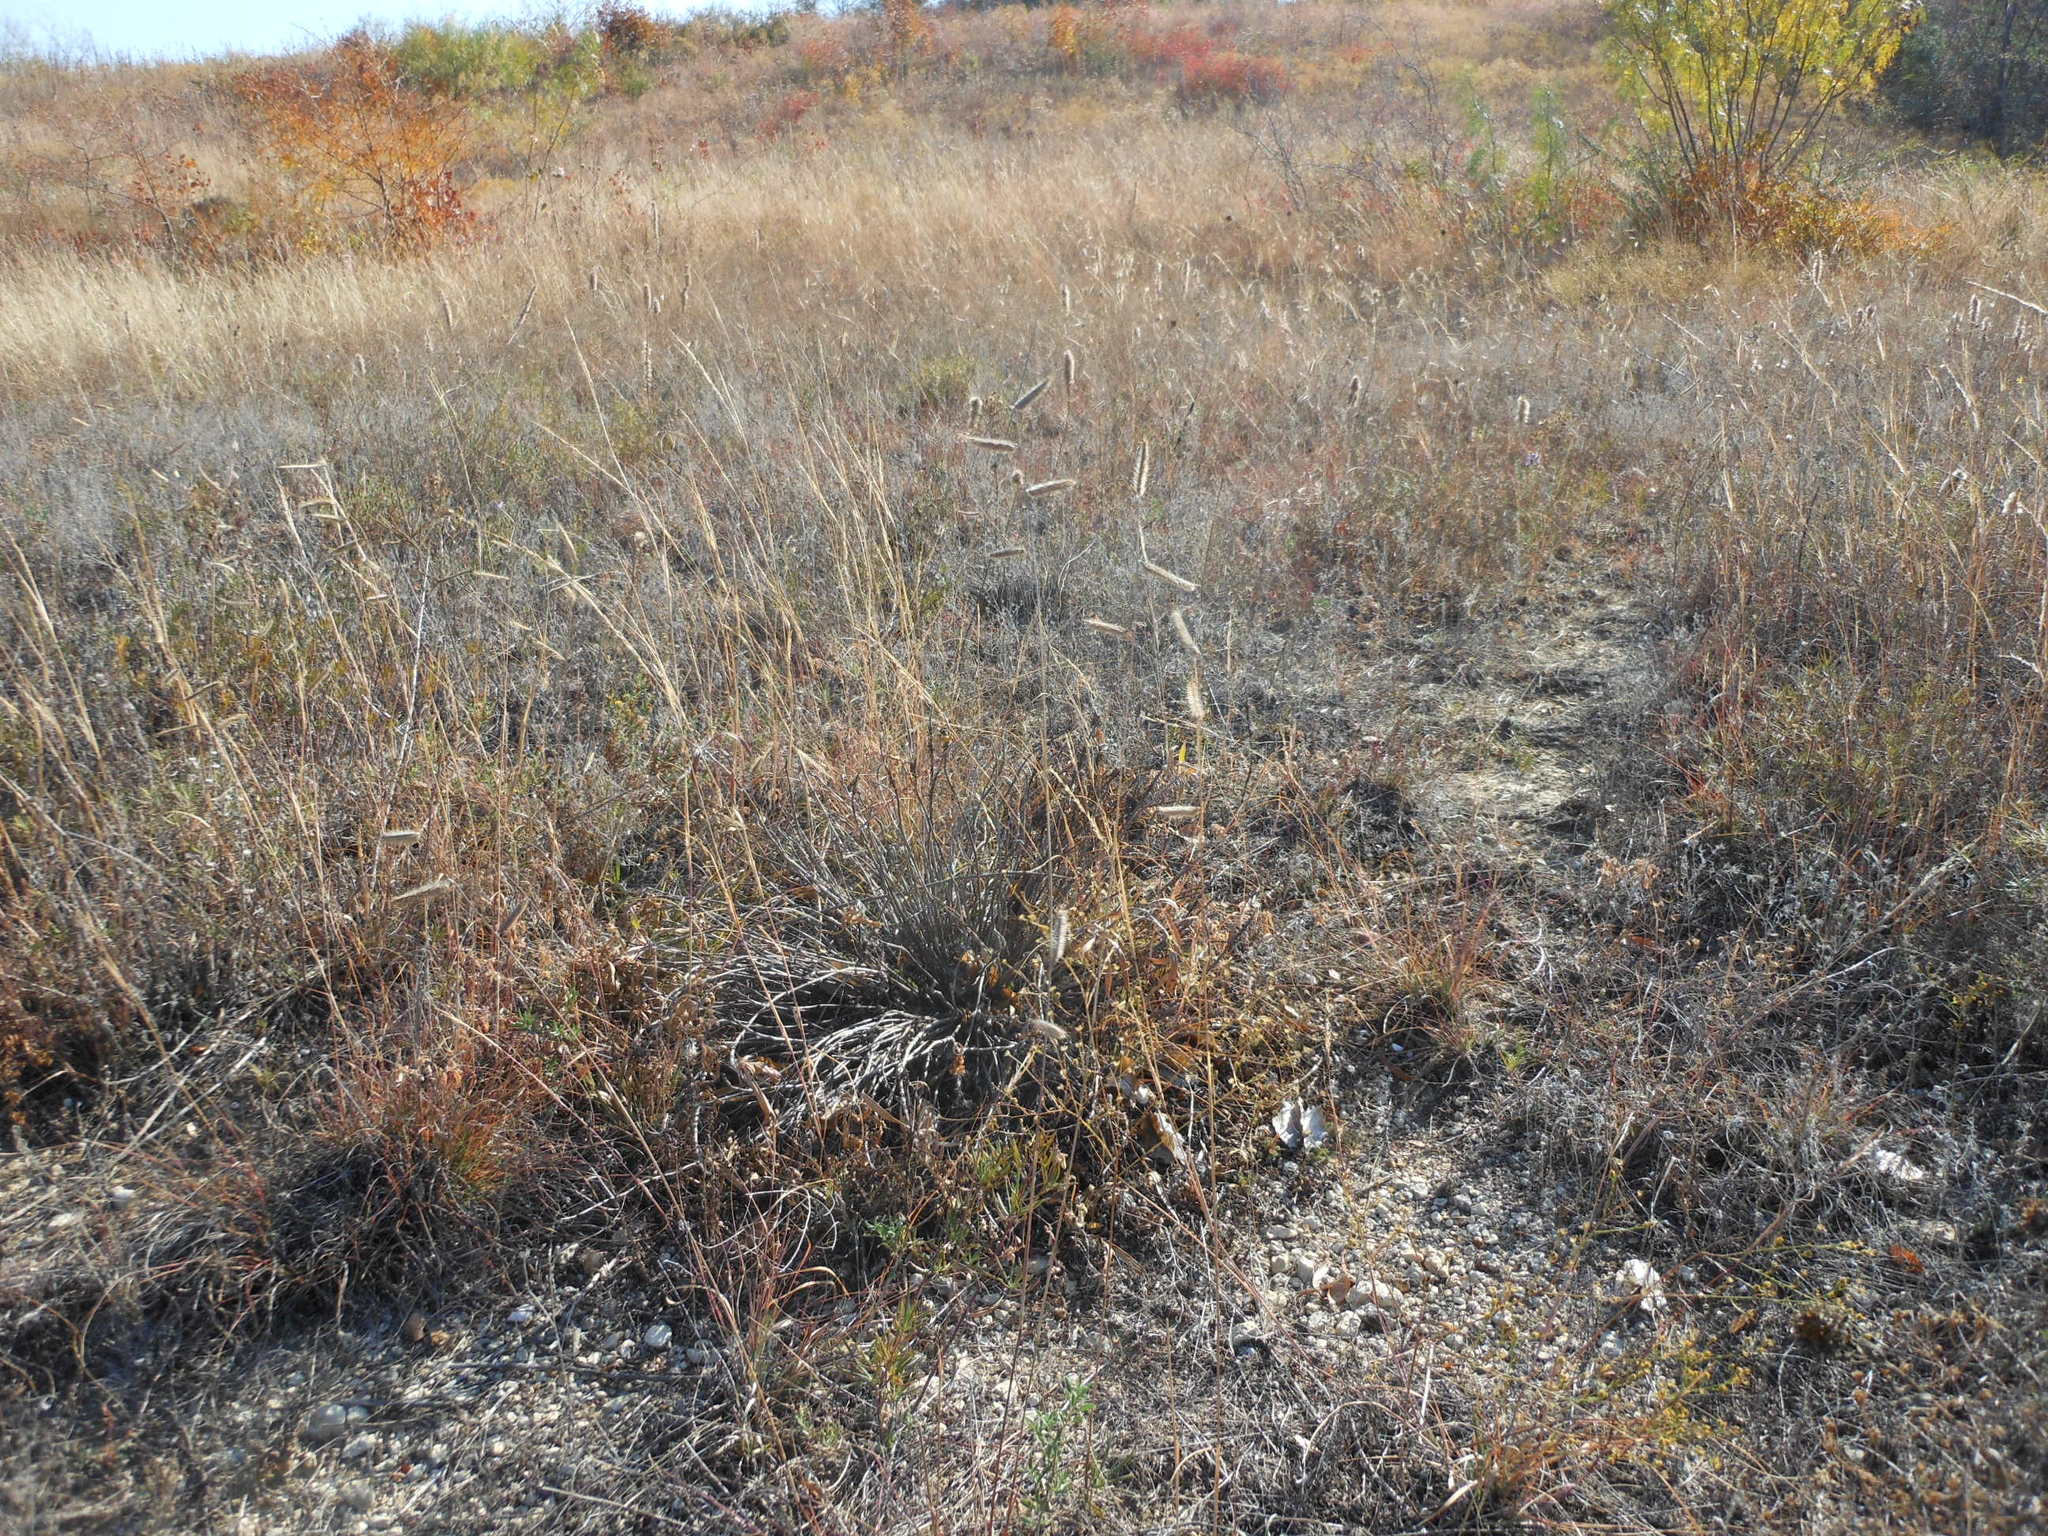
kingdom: Plantae
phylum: Tracheophyta
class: Liliopsida
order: Poales
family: Poaceae
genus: Bouteloua
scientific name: Bouteloua hirsuta
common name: Hairy grama
